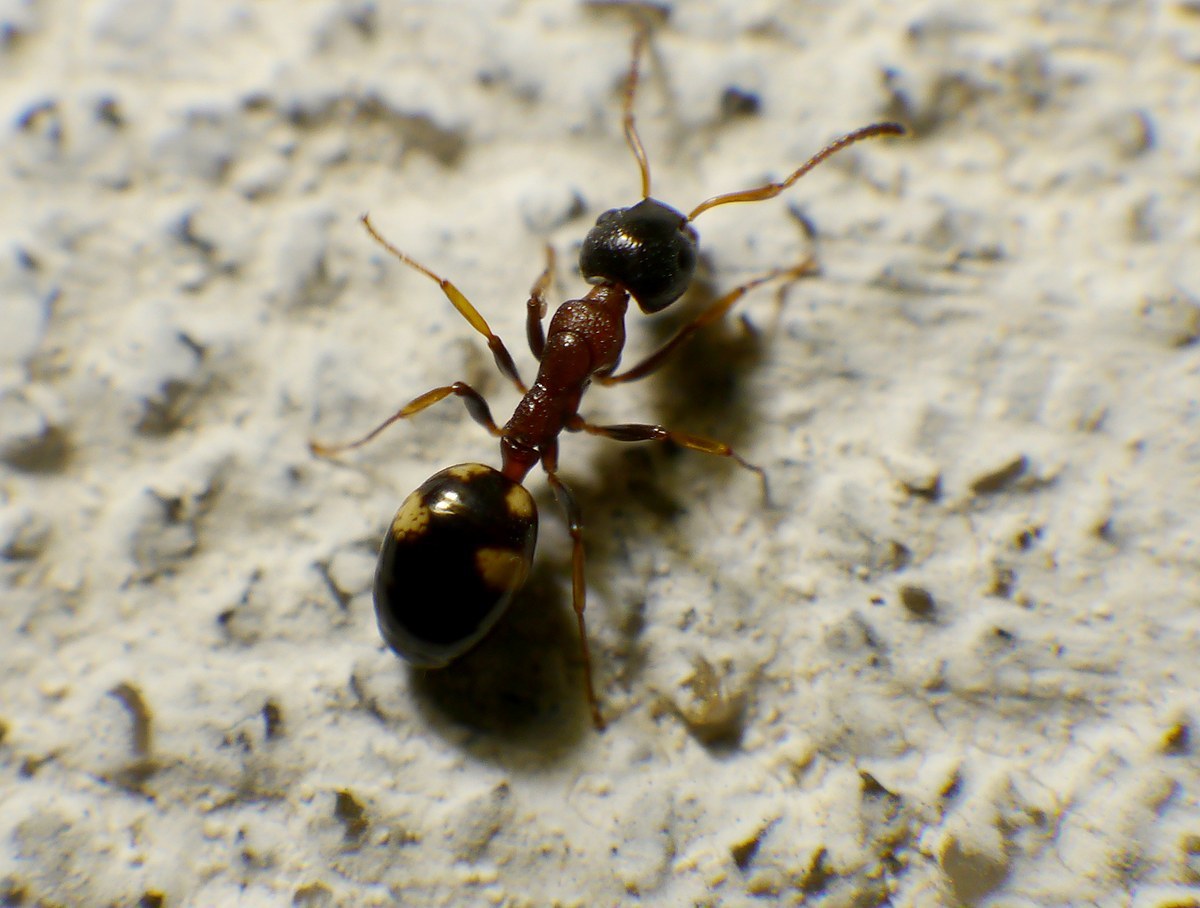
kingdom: Animalia
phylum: Arthropoda
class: Insecta
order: Hymenoptera
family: Formicidae
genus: Dolichoderus
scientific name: Dolichoderus quadripunctatus
